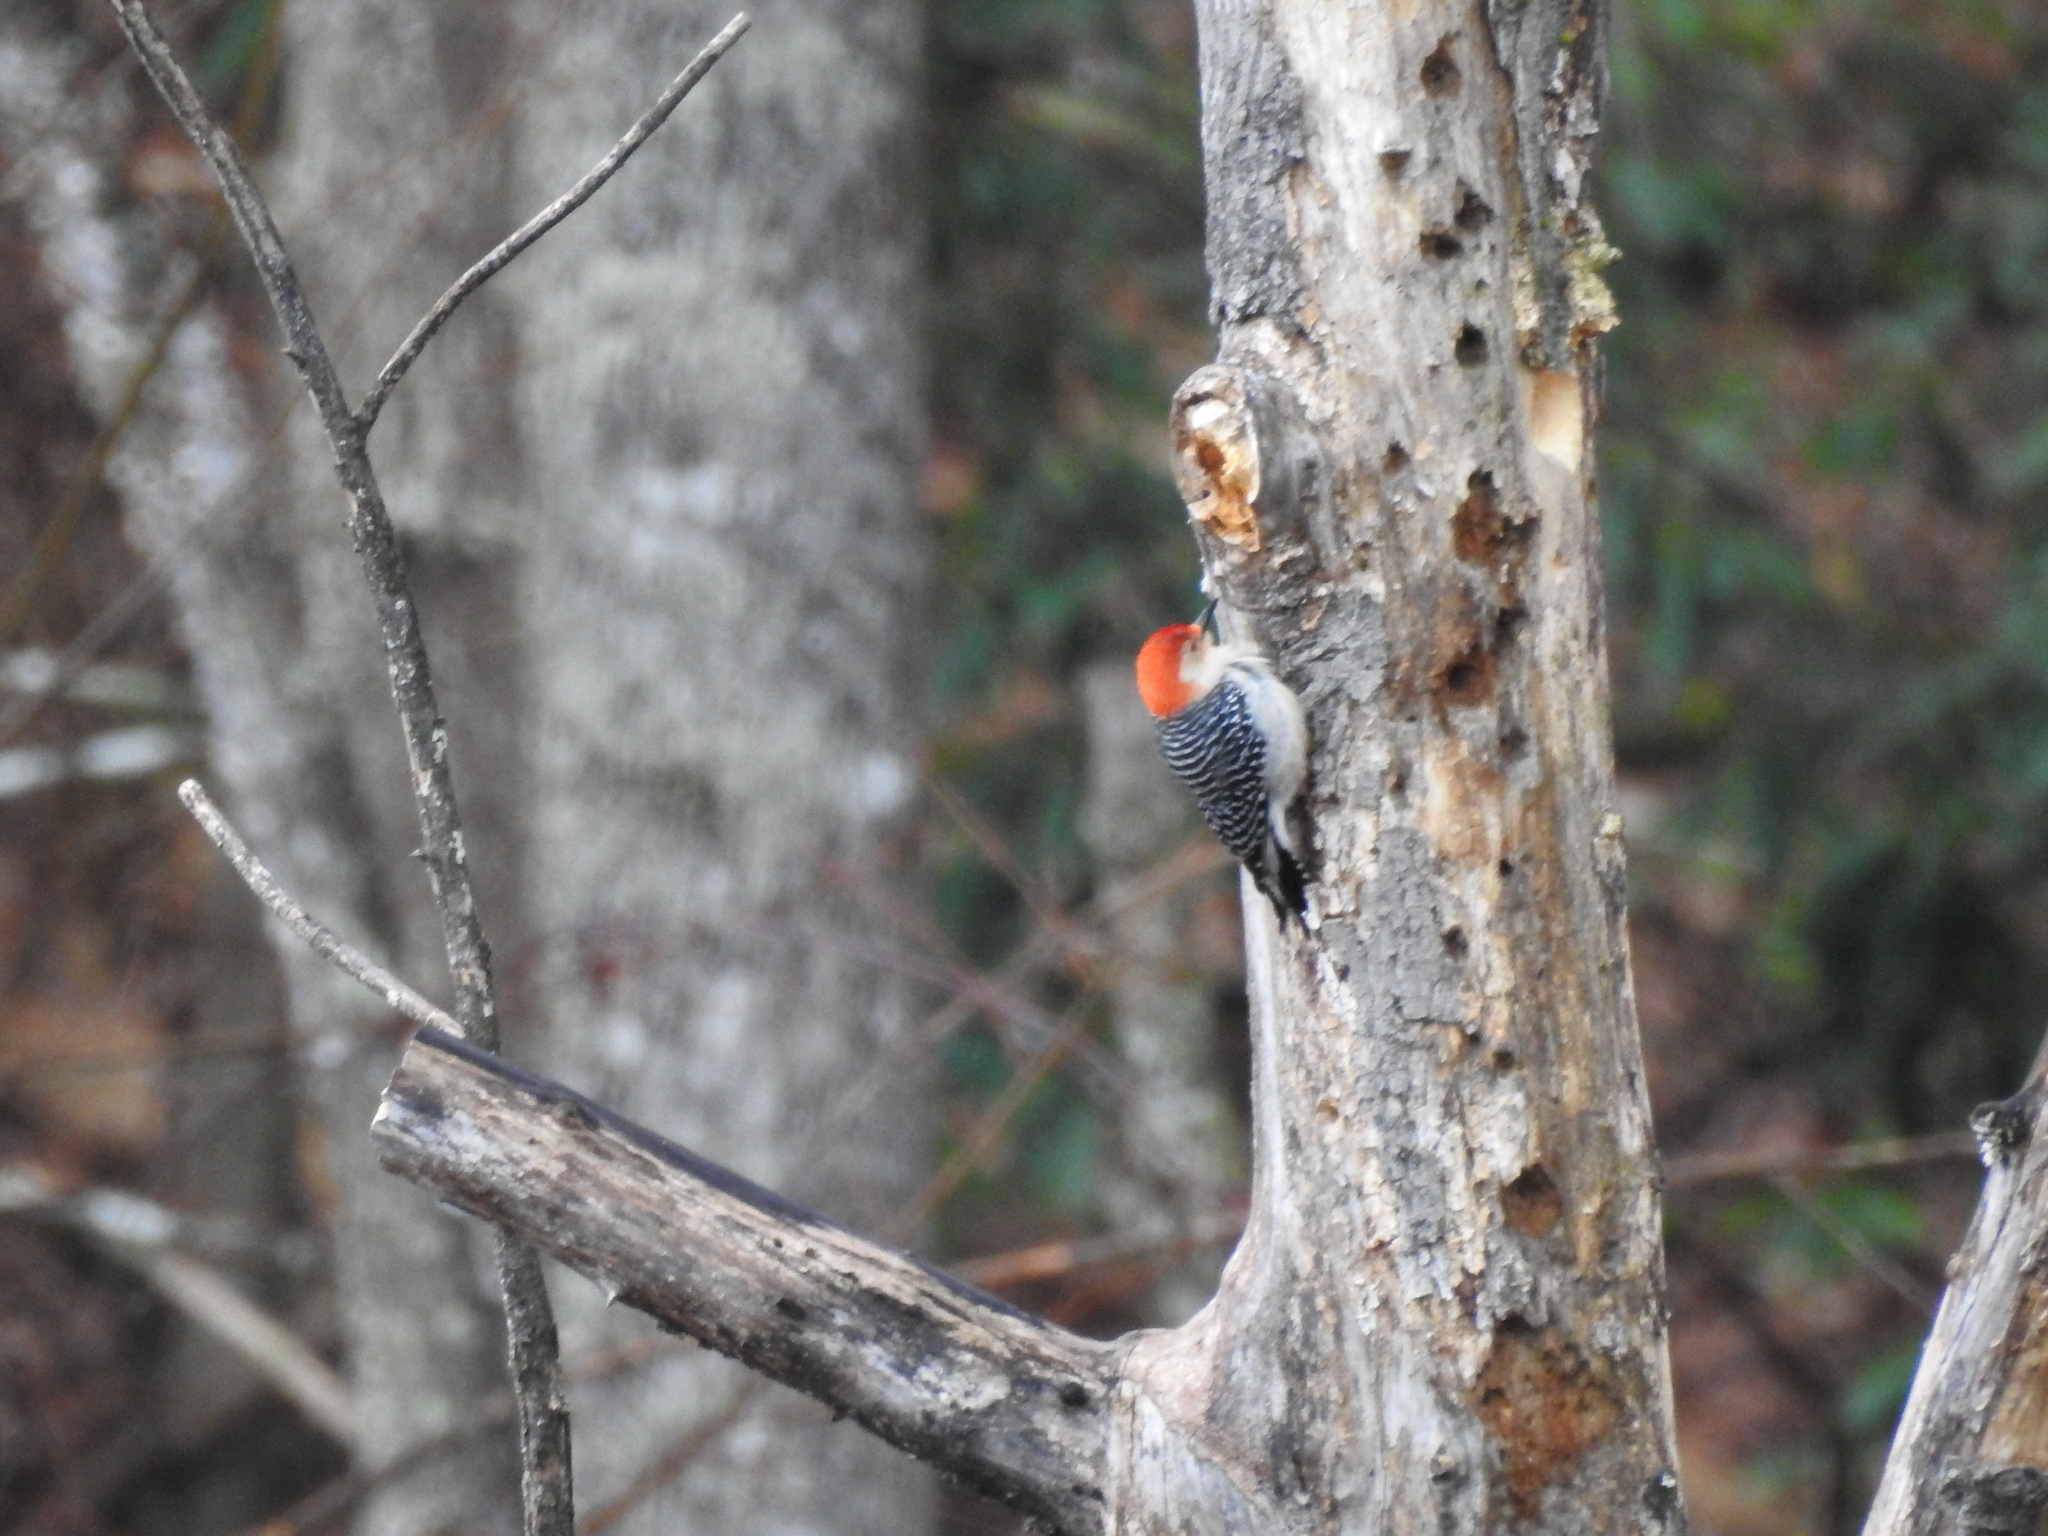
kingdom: Animalia
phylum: Chordata
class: Aves
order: Piciformes
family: Picidae
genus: Melanerpes
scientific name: Melanerpes carolinus
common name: Red-bellied woodpecker
